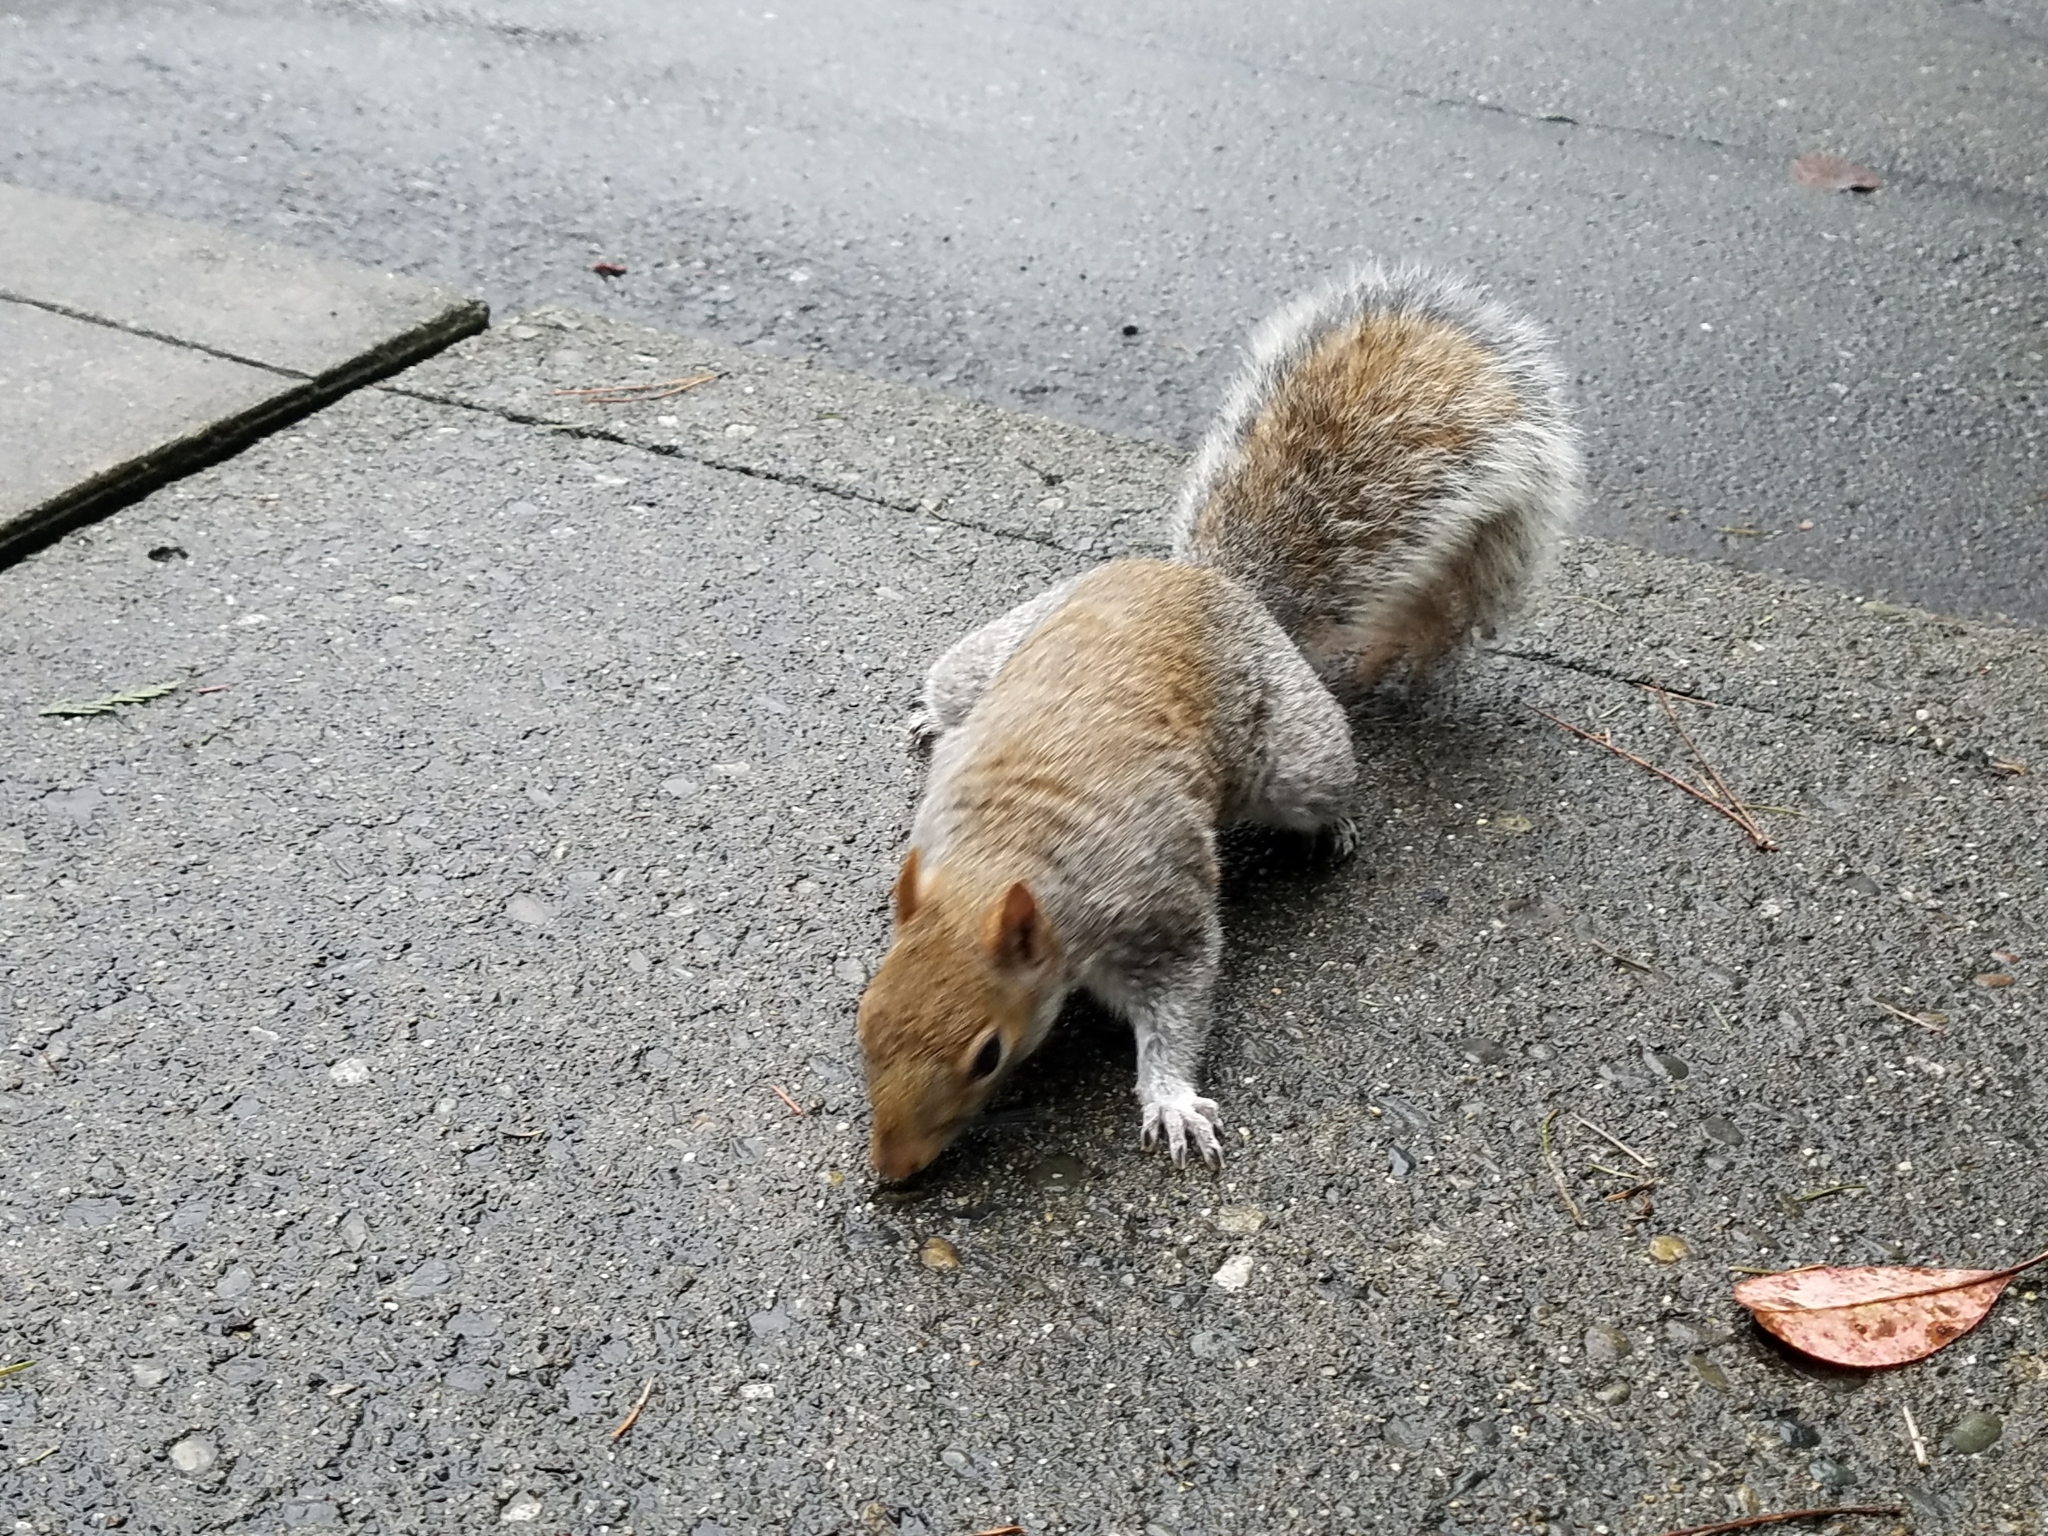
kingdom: Animalia
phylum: Chordata
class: Mammalia
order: Rodentia
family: Sciuridae
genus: Sciurus
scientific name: Sciurus carolinensis
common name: Eastern gray squirrel
